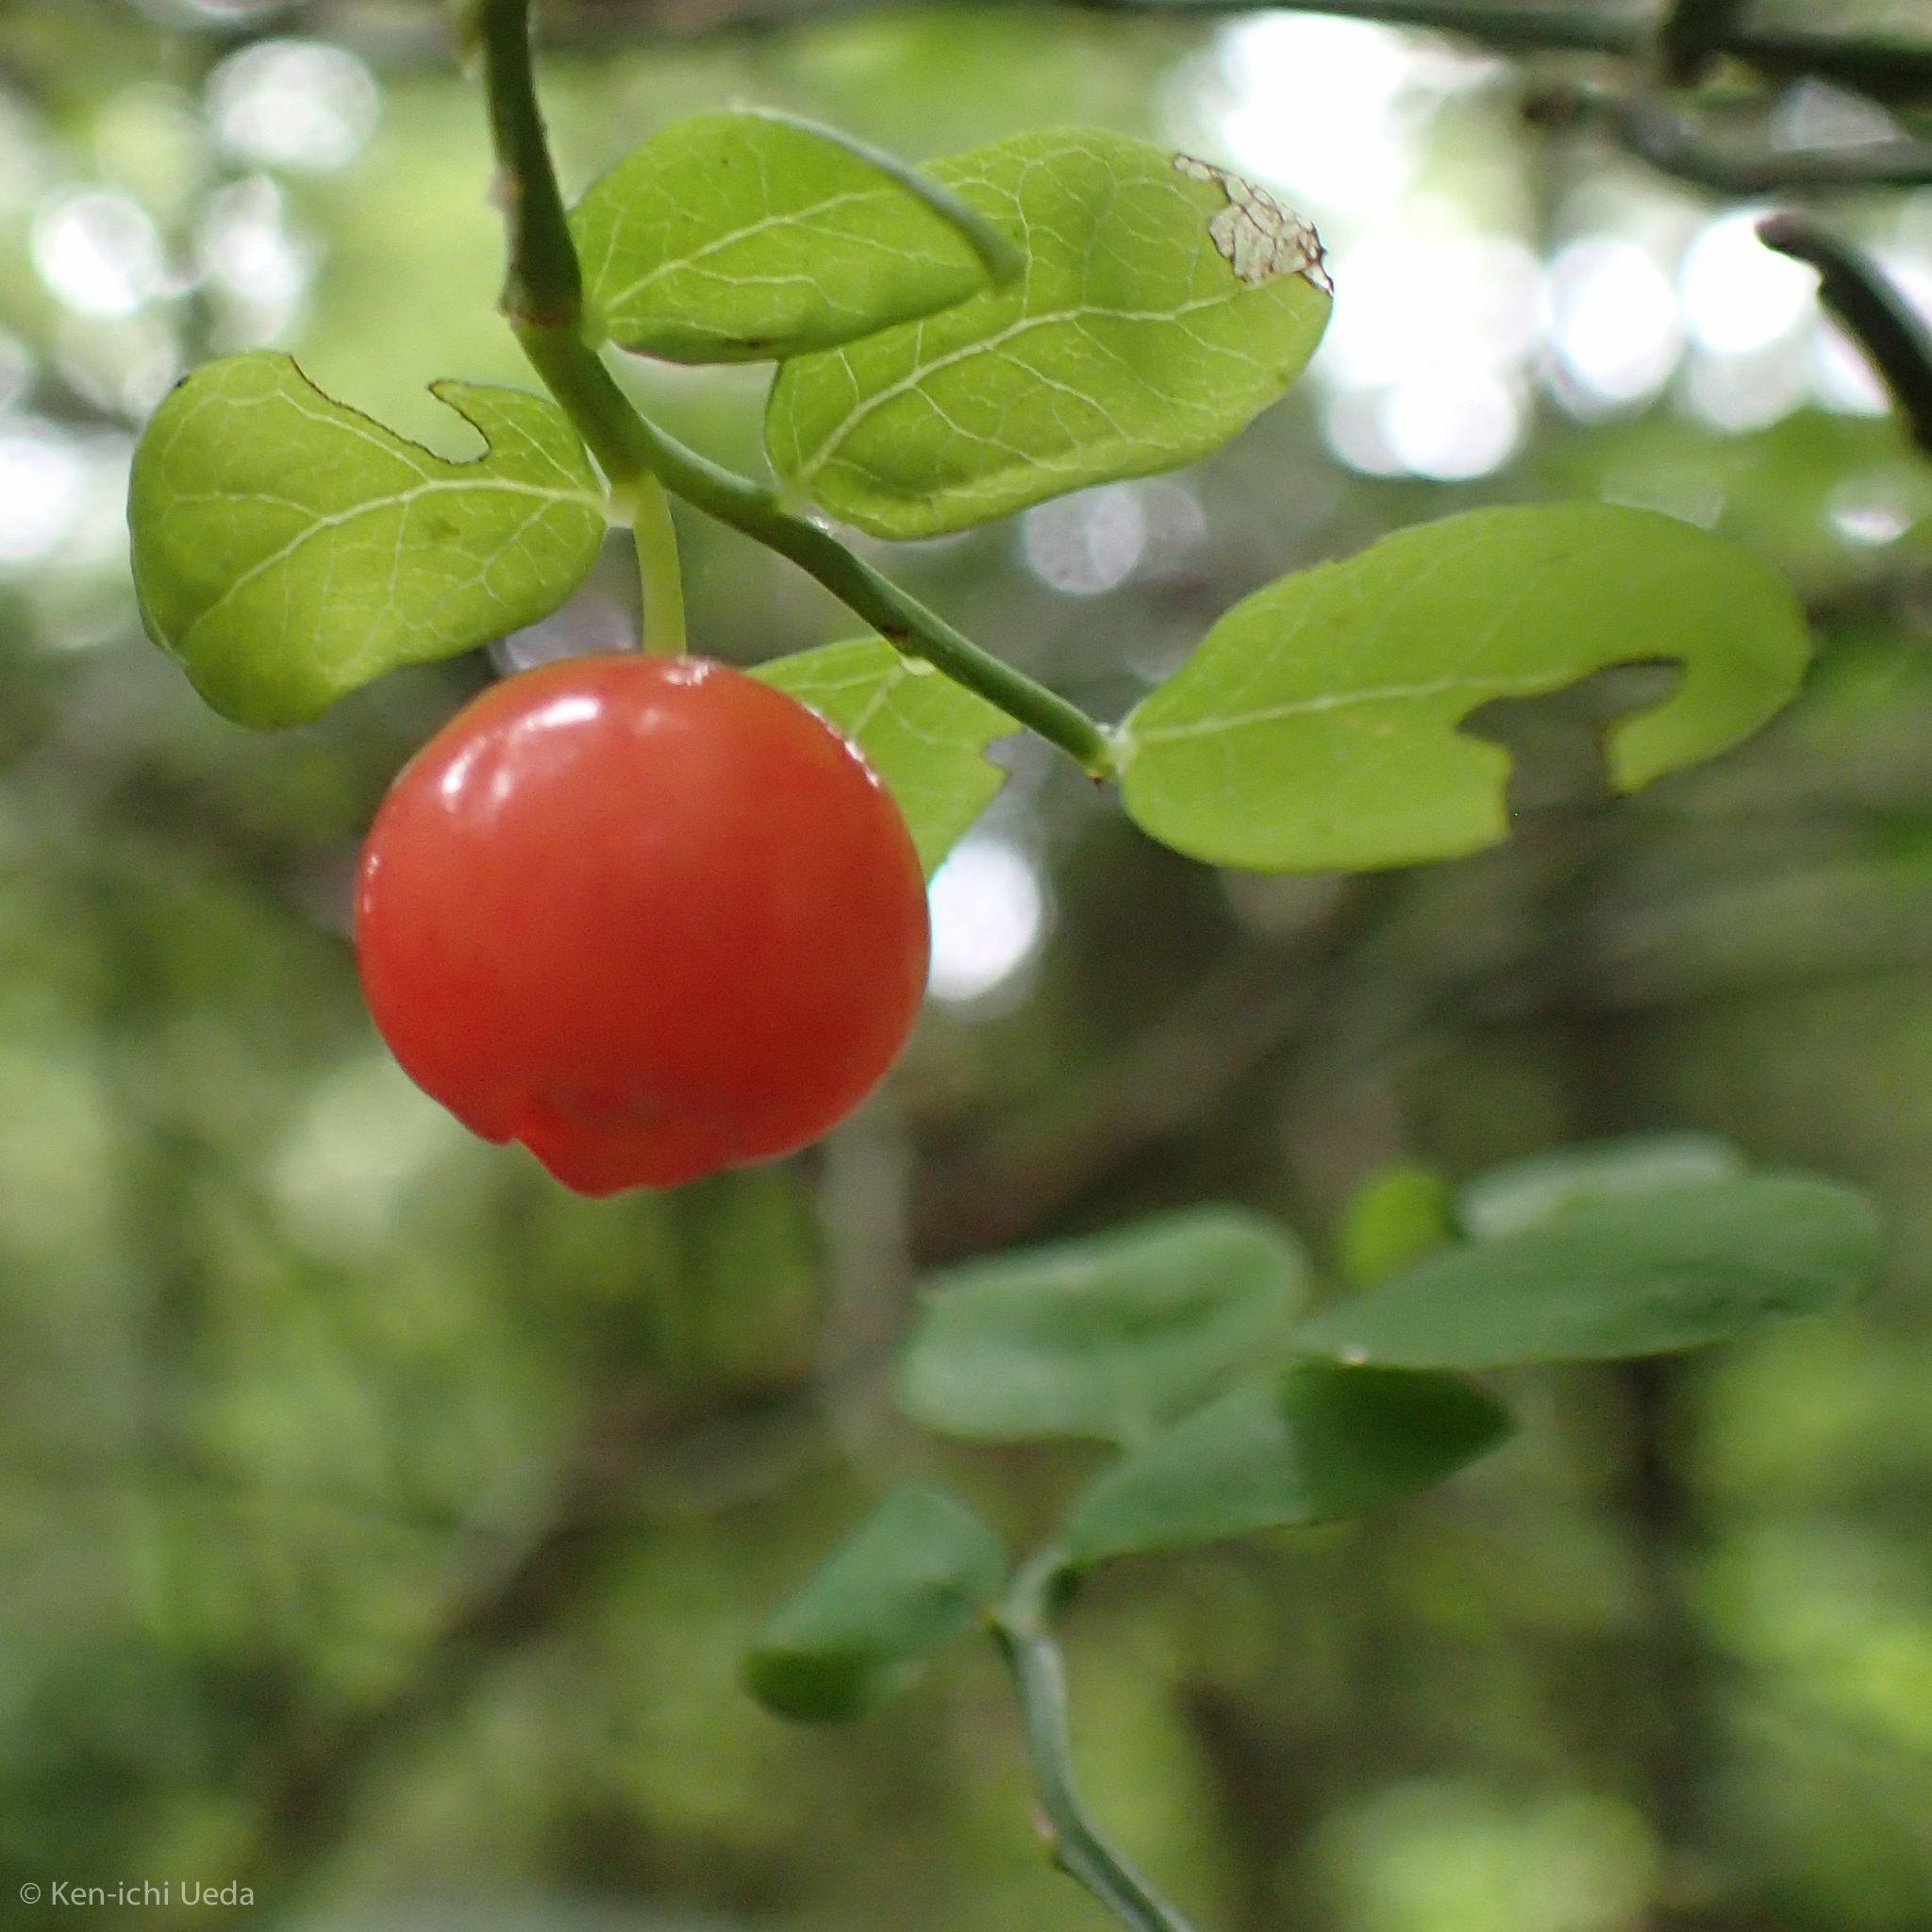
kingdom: Plantae
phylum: Tracheophyta
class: Magnoliopsida
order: Ericales
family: Ericaceae
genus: Vaccinium
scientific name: Vaccinium parvifolium
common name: Red-huckleberry
